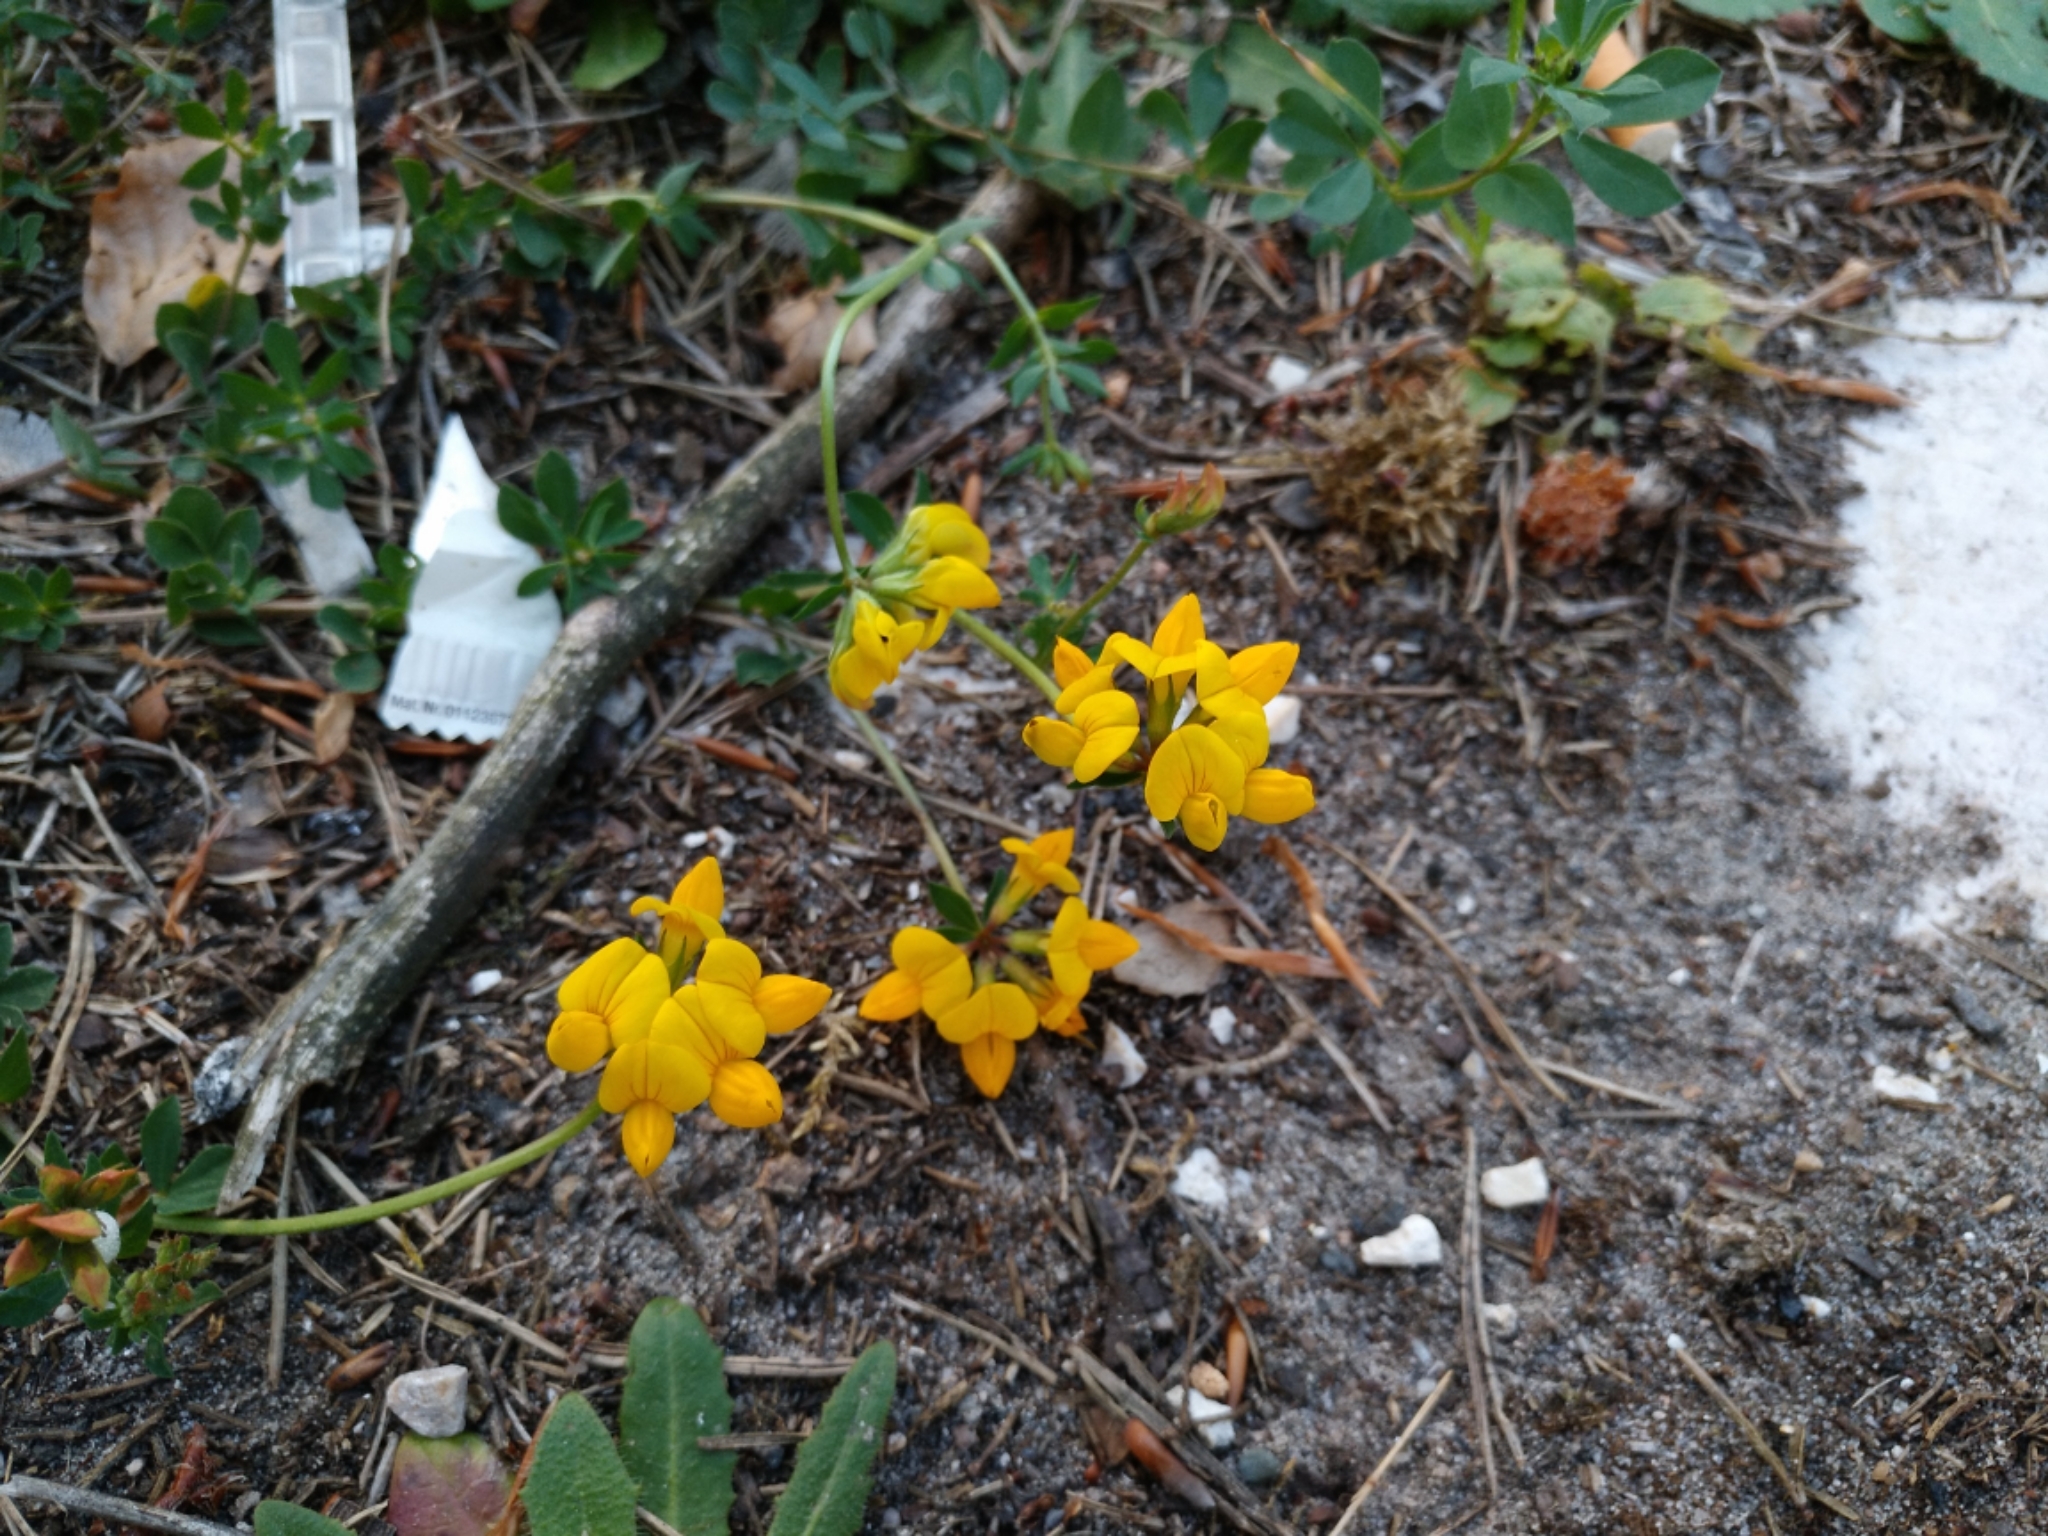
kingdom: Plantae
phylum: Tracheophyta
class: Magnoliopsida
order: Fabales
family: Fabaceae
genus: Lotus
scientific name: Lotus corniculatus
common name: Common bird's-foot-trefoil
